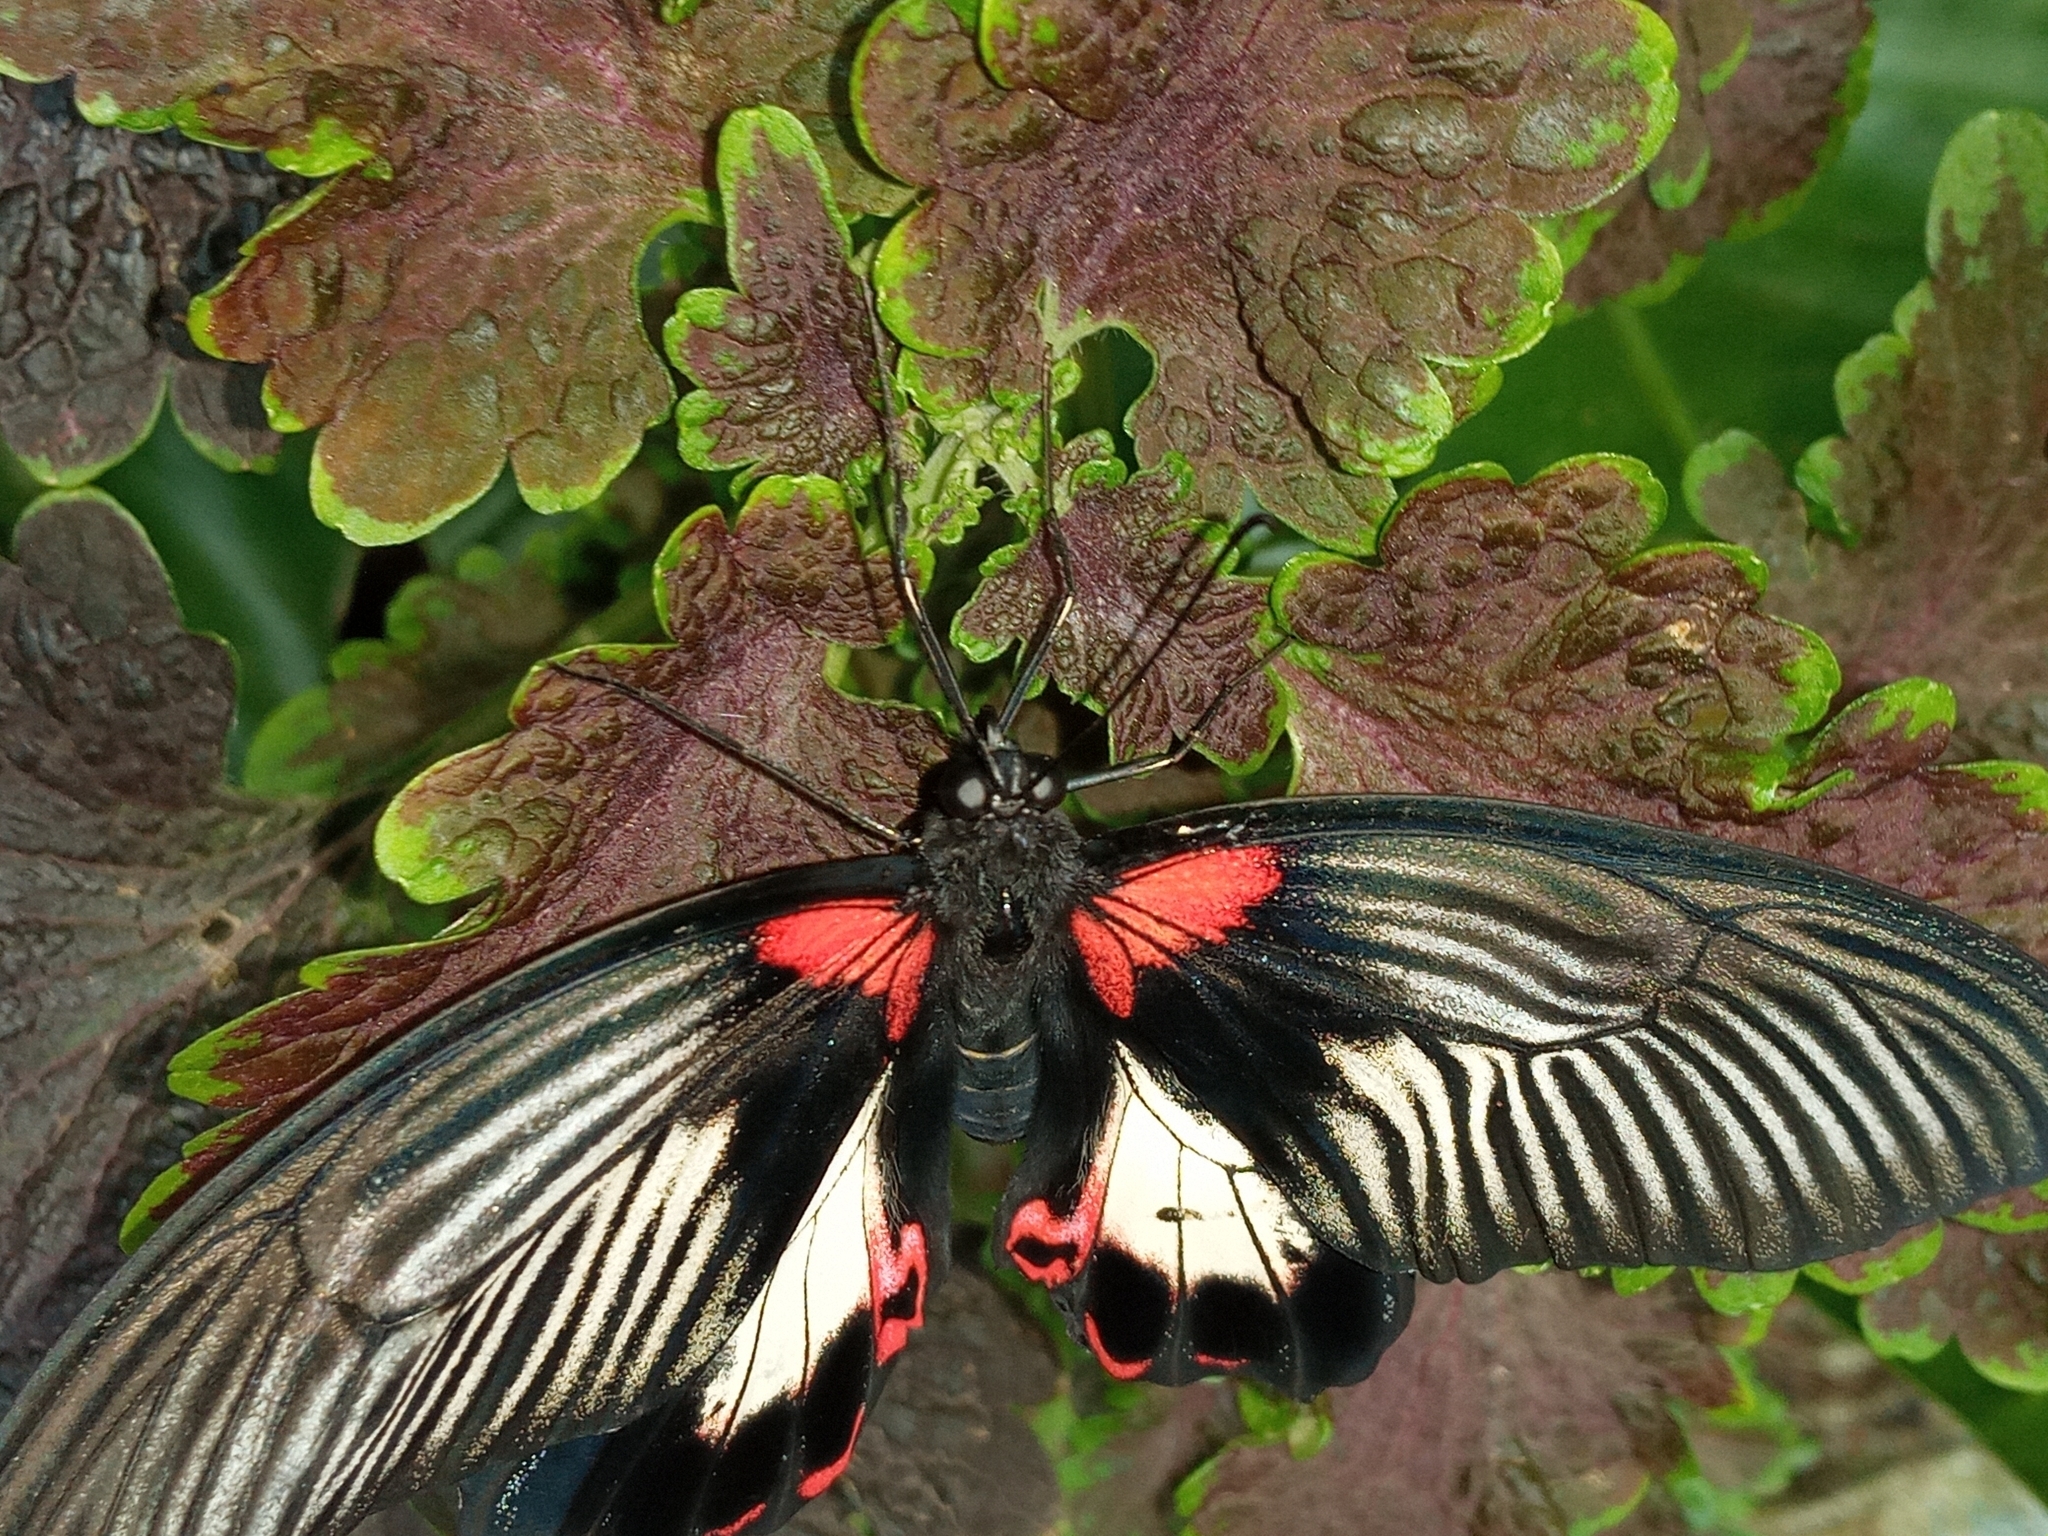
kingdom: Animalia
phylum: Arthropoda
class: Insecta
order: Lepidoptera
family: Papilionidae
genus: Papilio
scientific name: Papilio deiphobus
